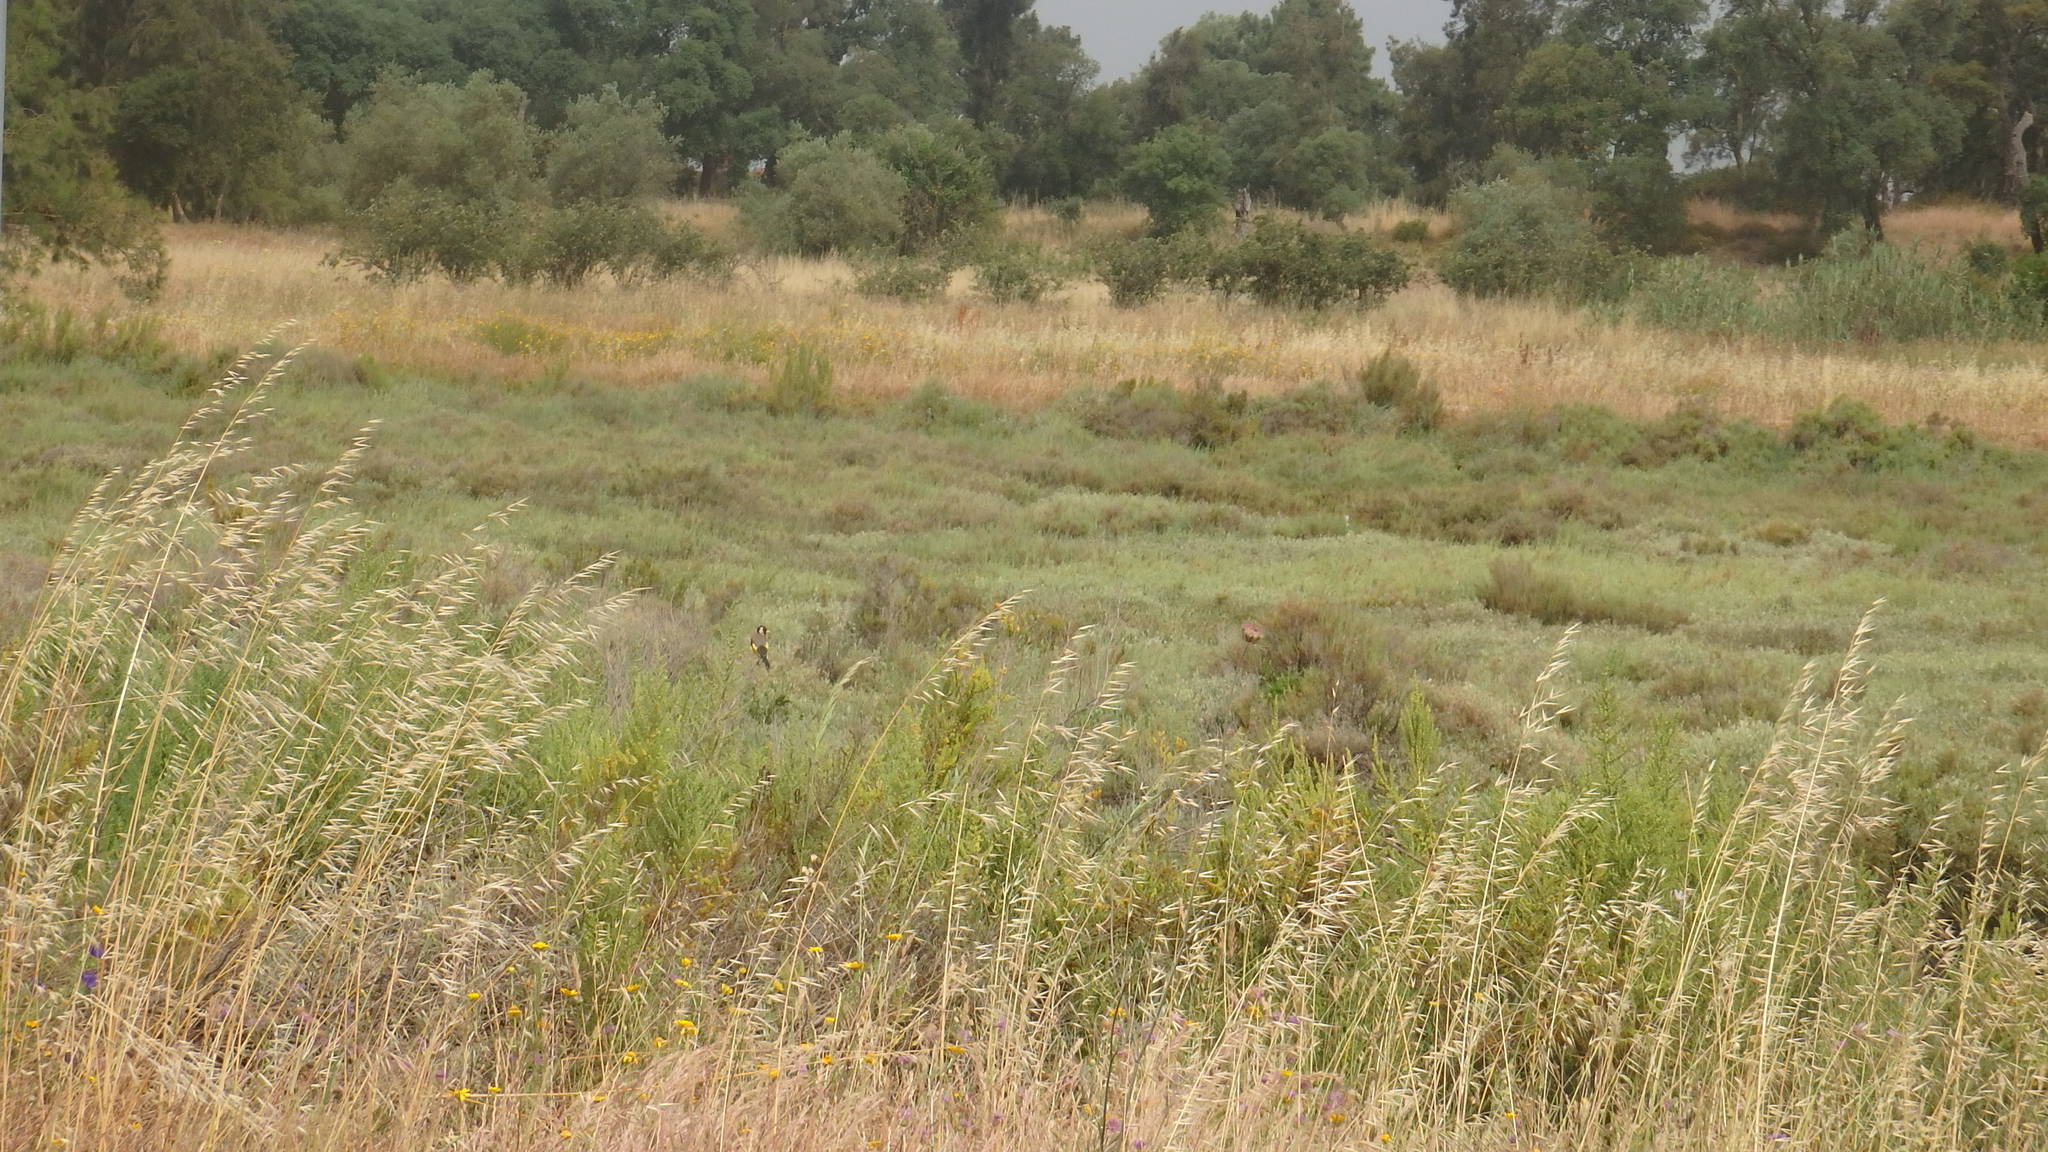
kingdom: Animalia
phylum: Chordata
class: Aves
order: Passeriformes
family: Fringillidae
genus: Carduelis
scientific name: Carduelis carduelis
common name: European goldfinch
